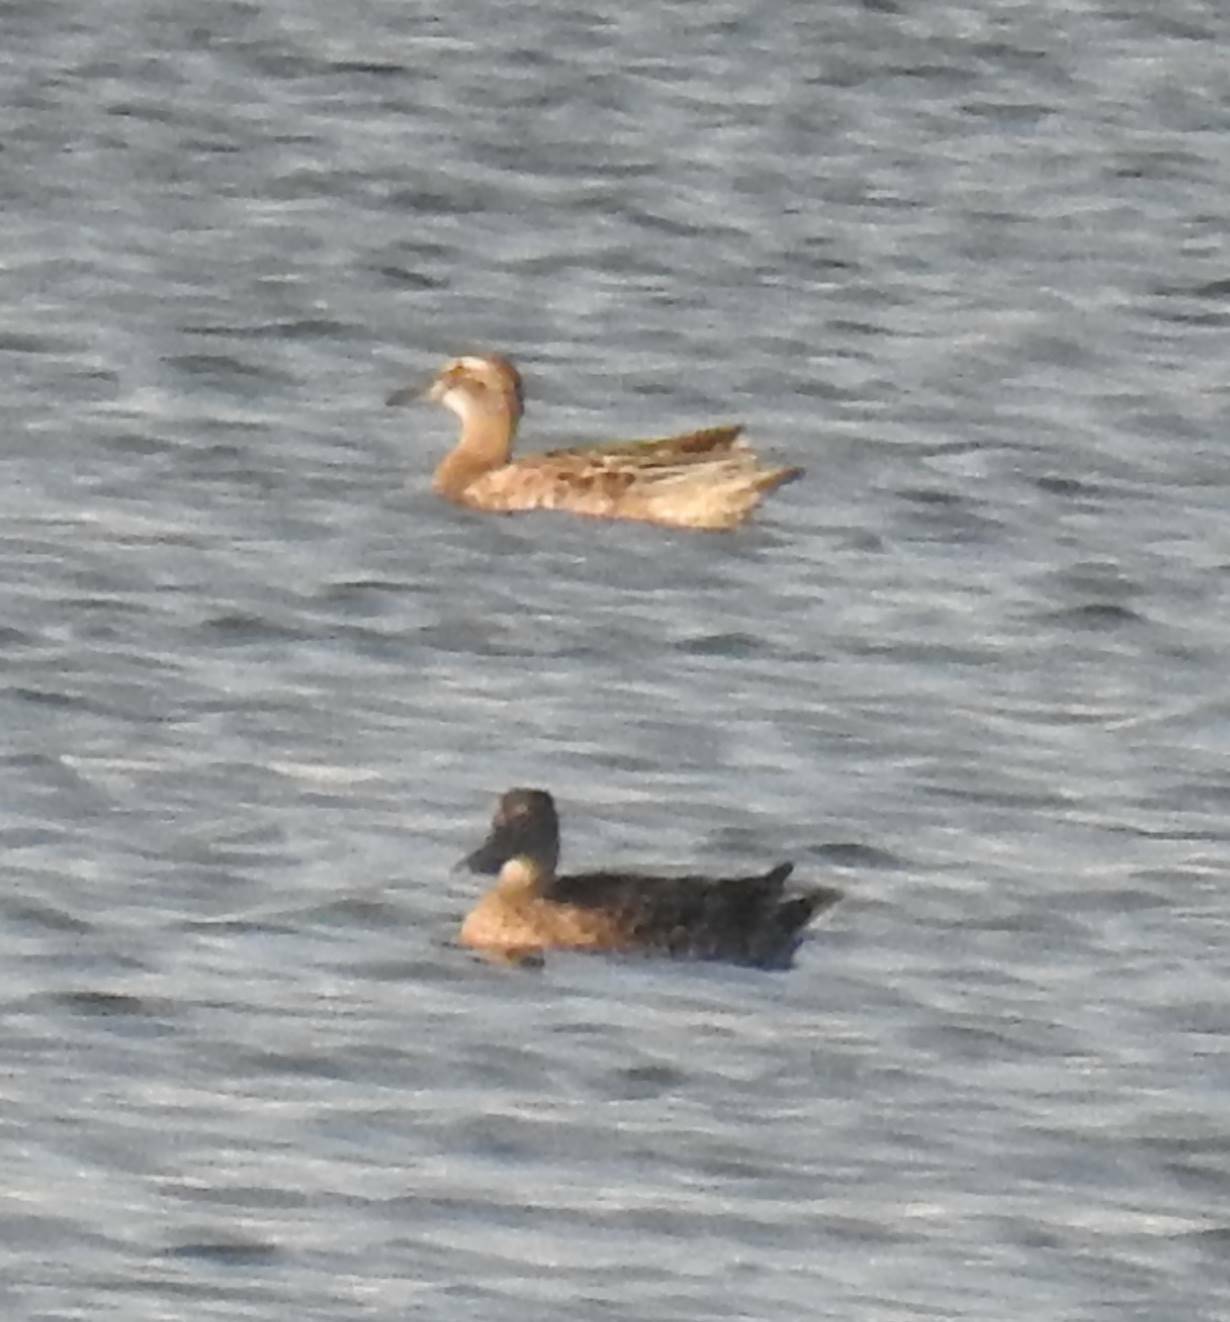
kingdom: Animalia
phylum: Chordata
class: Aves
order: Anseriformes
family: Anatidae
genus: Spatula
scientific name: Spatula querquedula
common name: Garganey
